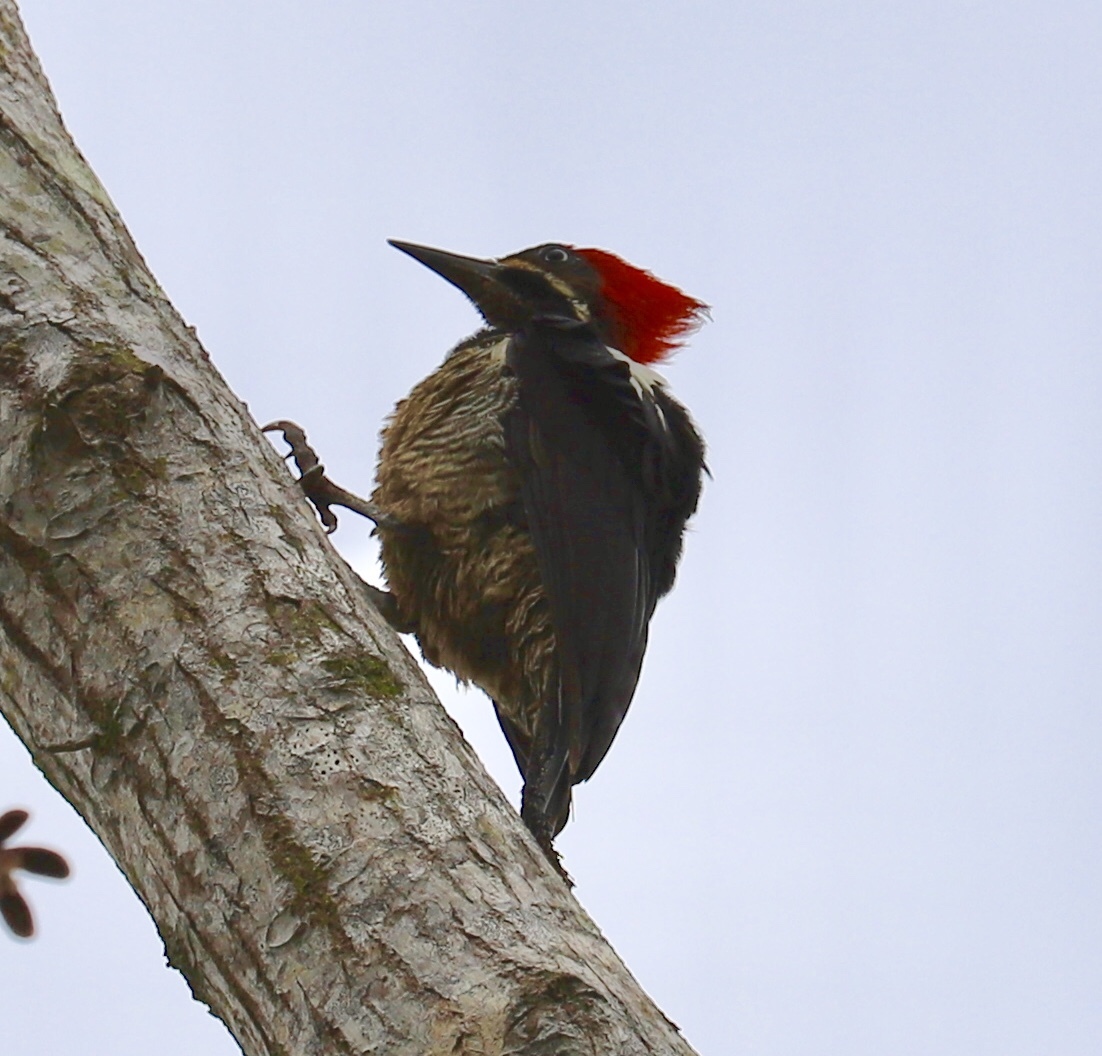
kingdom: Animalia
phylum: Chordata
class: Aves
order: Piciformes
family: Picidae
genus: Dryocopus
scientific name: Dryocopus lineatus
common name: Lineated woodpecker
